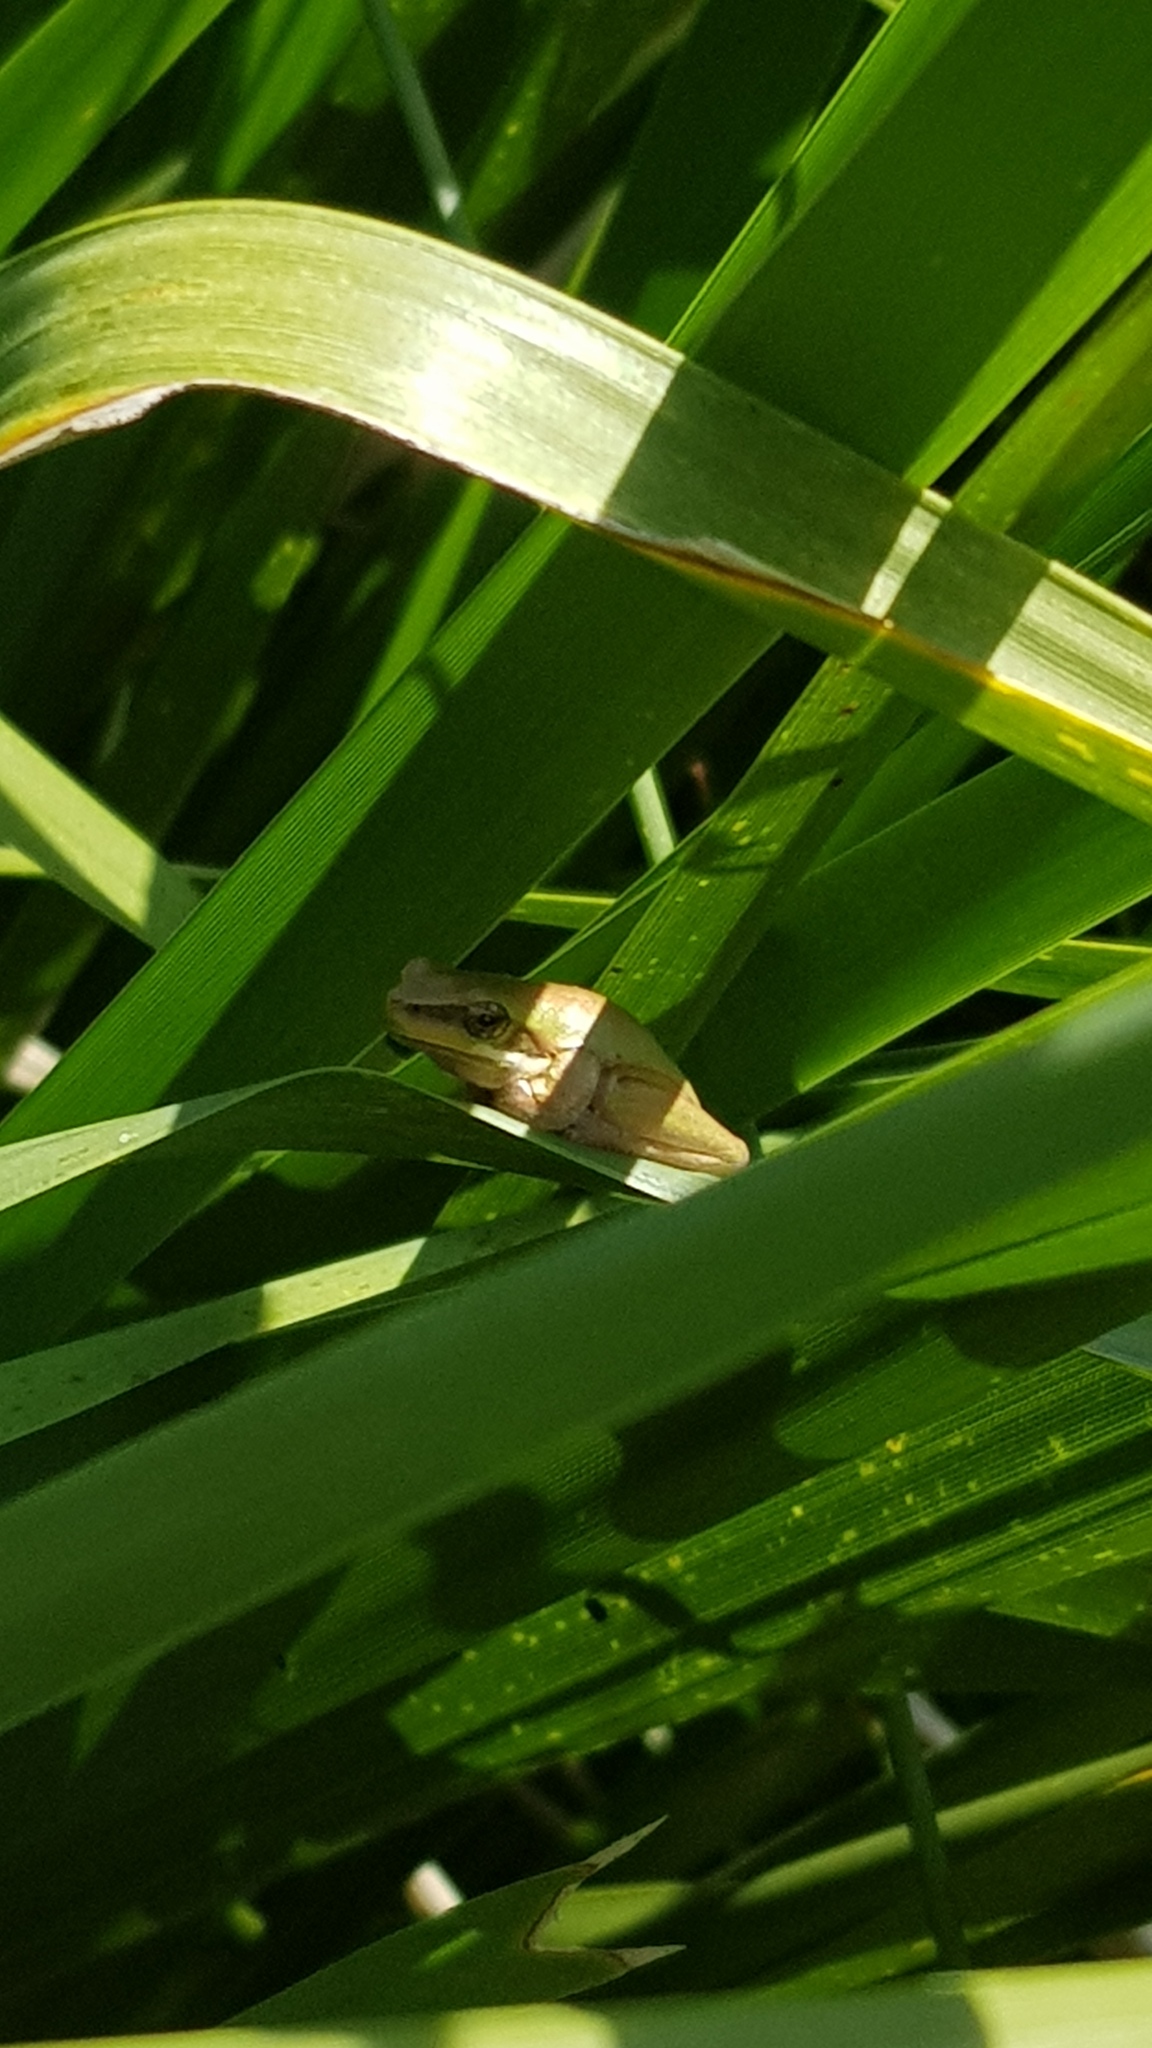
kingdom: Animalia
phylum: Chordata
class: Amphibia
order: Anura
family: Pelodryadidae
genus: Litoria
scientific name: Litoria fallax
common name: Eastern dwarf treefrog
